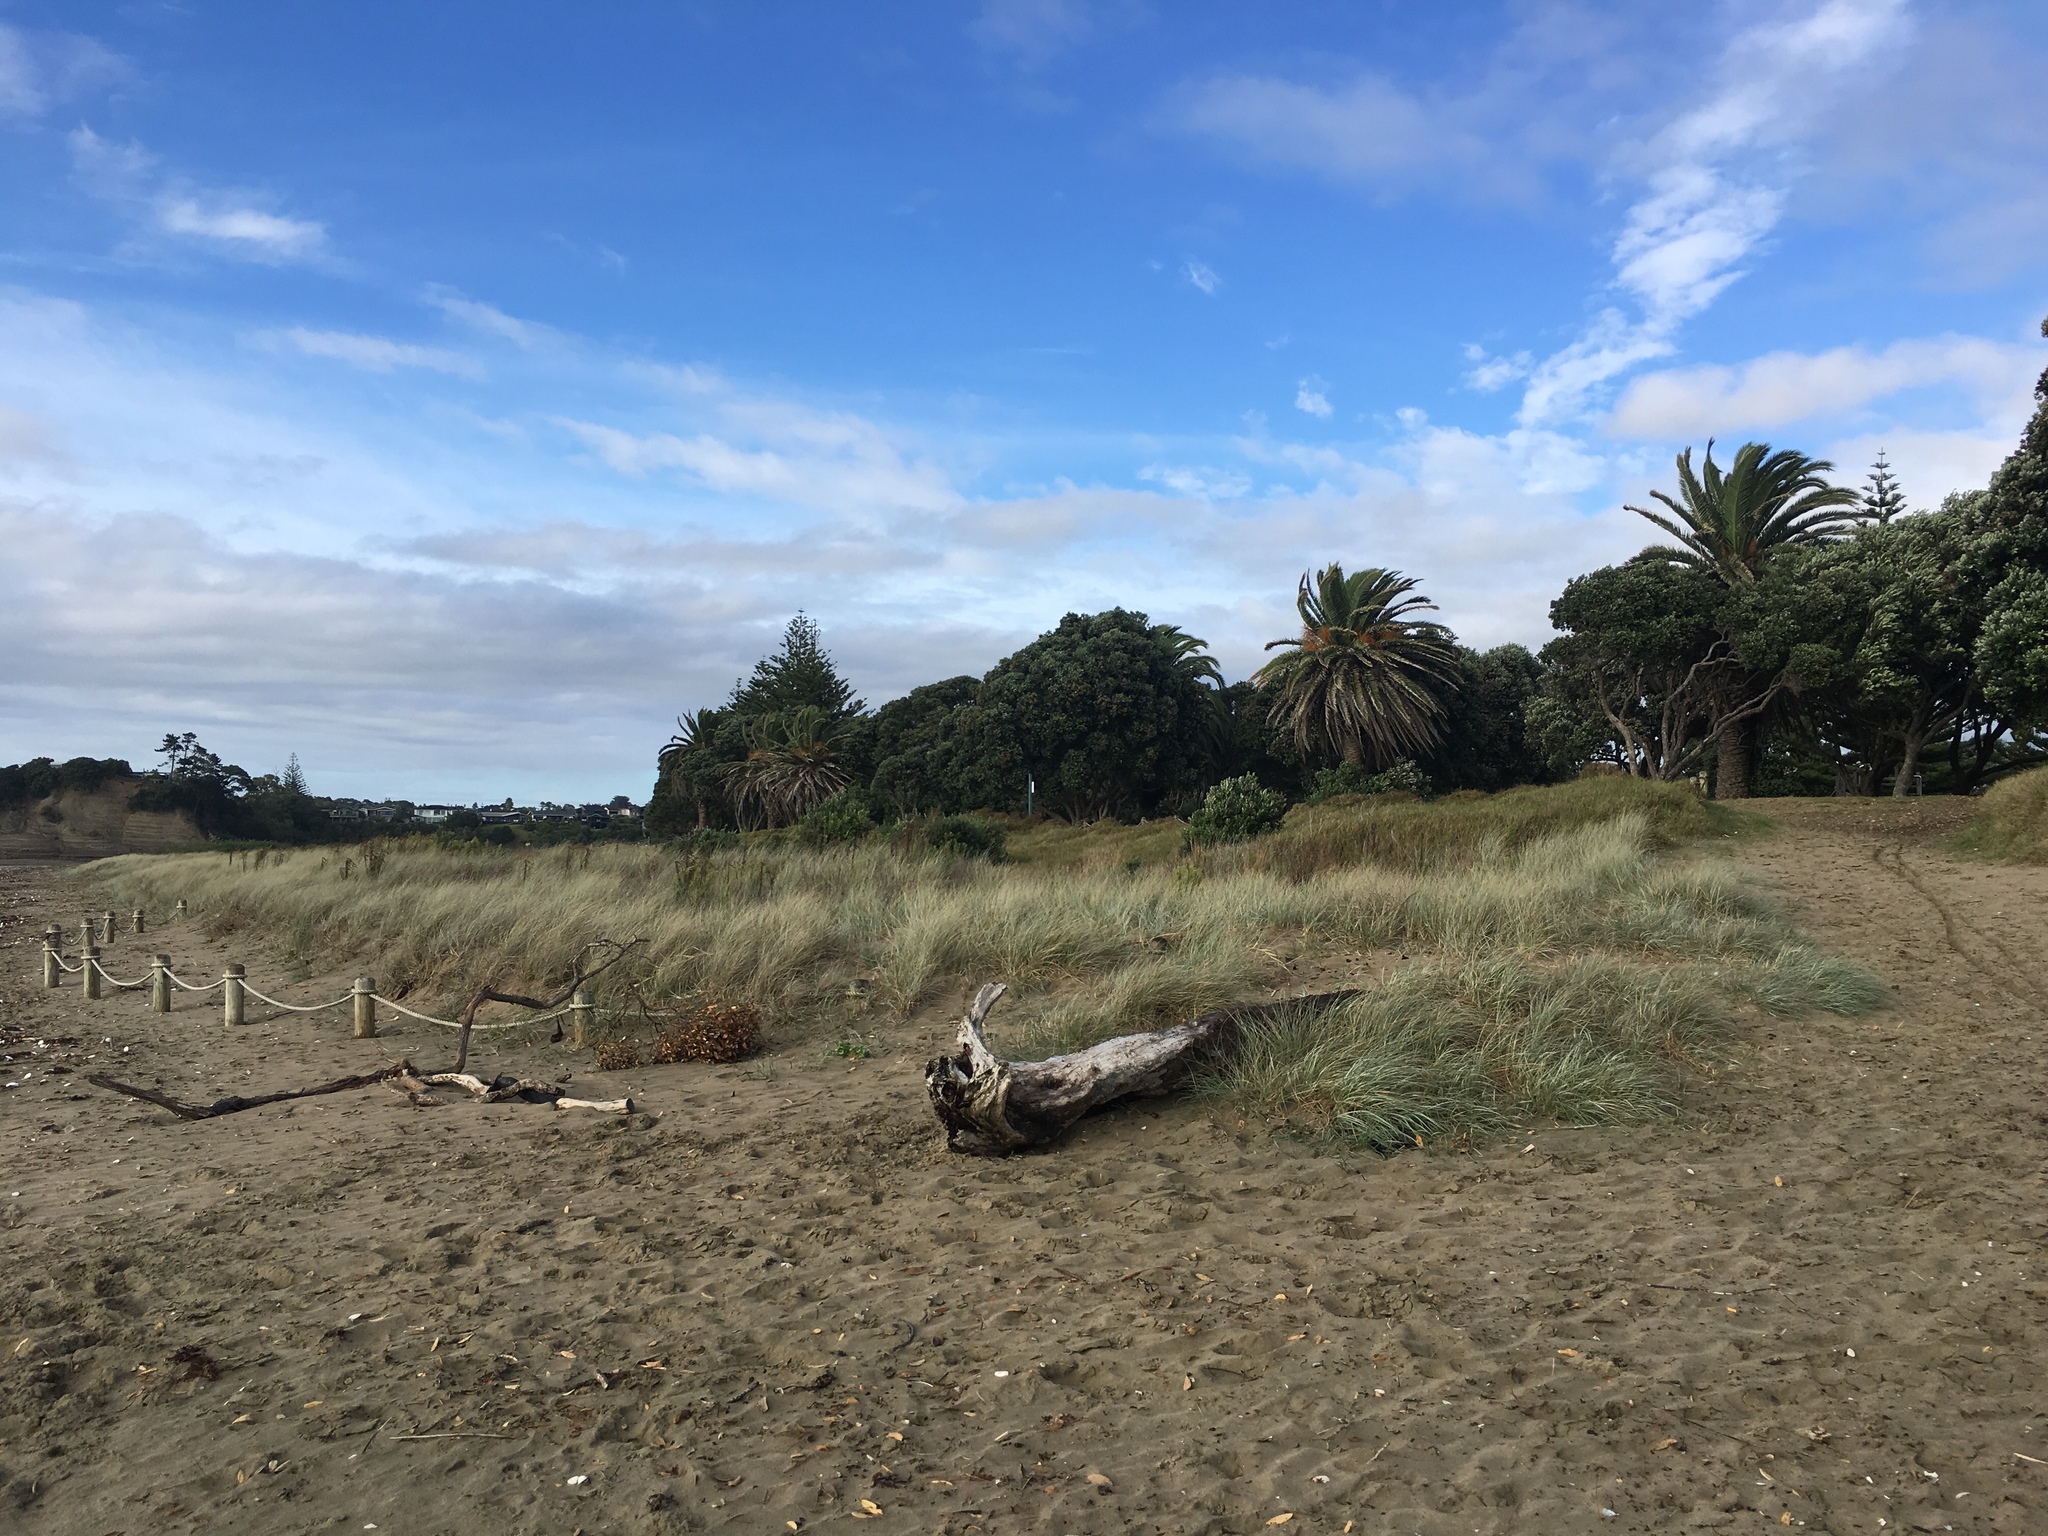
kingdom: Plantae
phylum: Tracheophyta
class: Liliopsida
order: Poales
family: Poaceae
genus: Spinifex
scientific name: Spinifex sericeus
